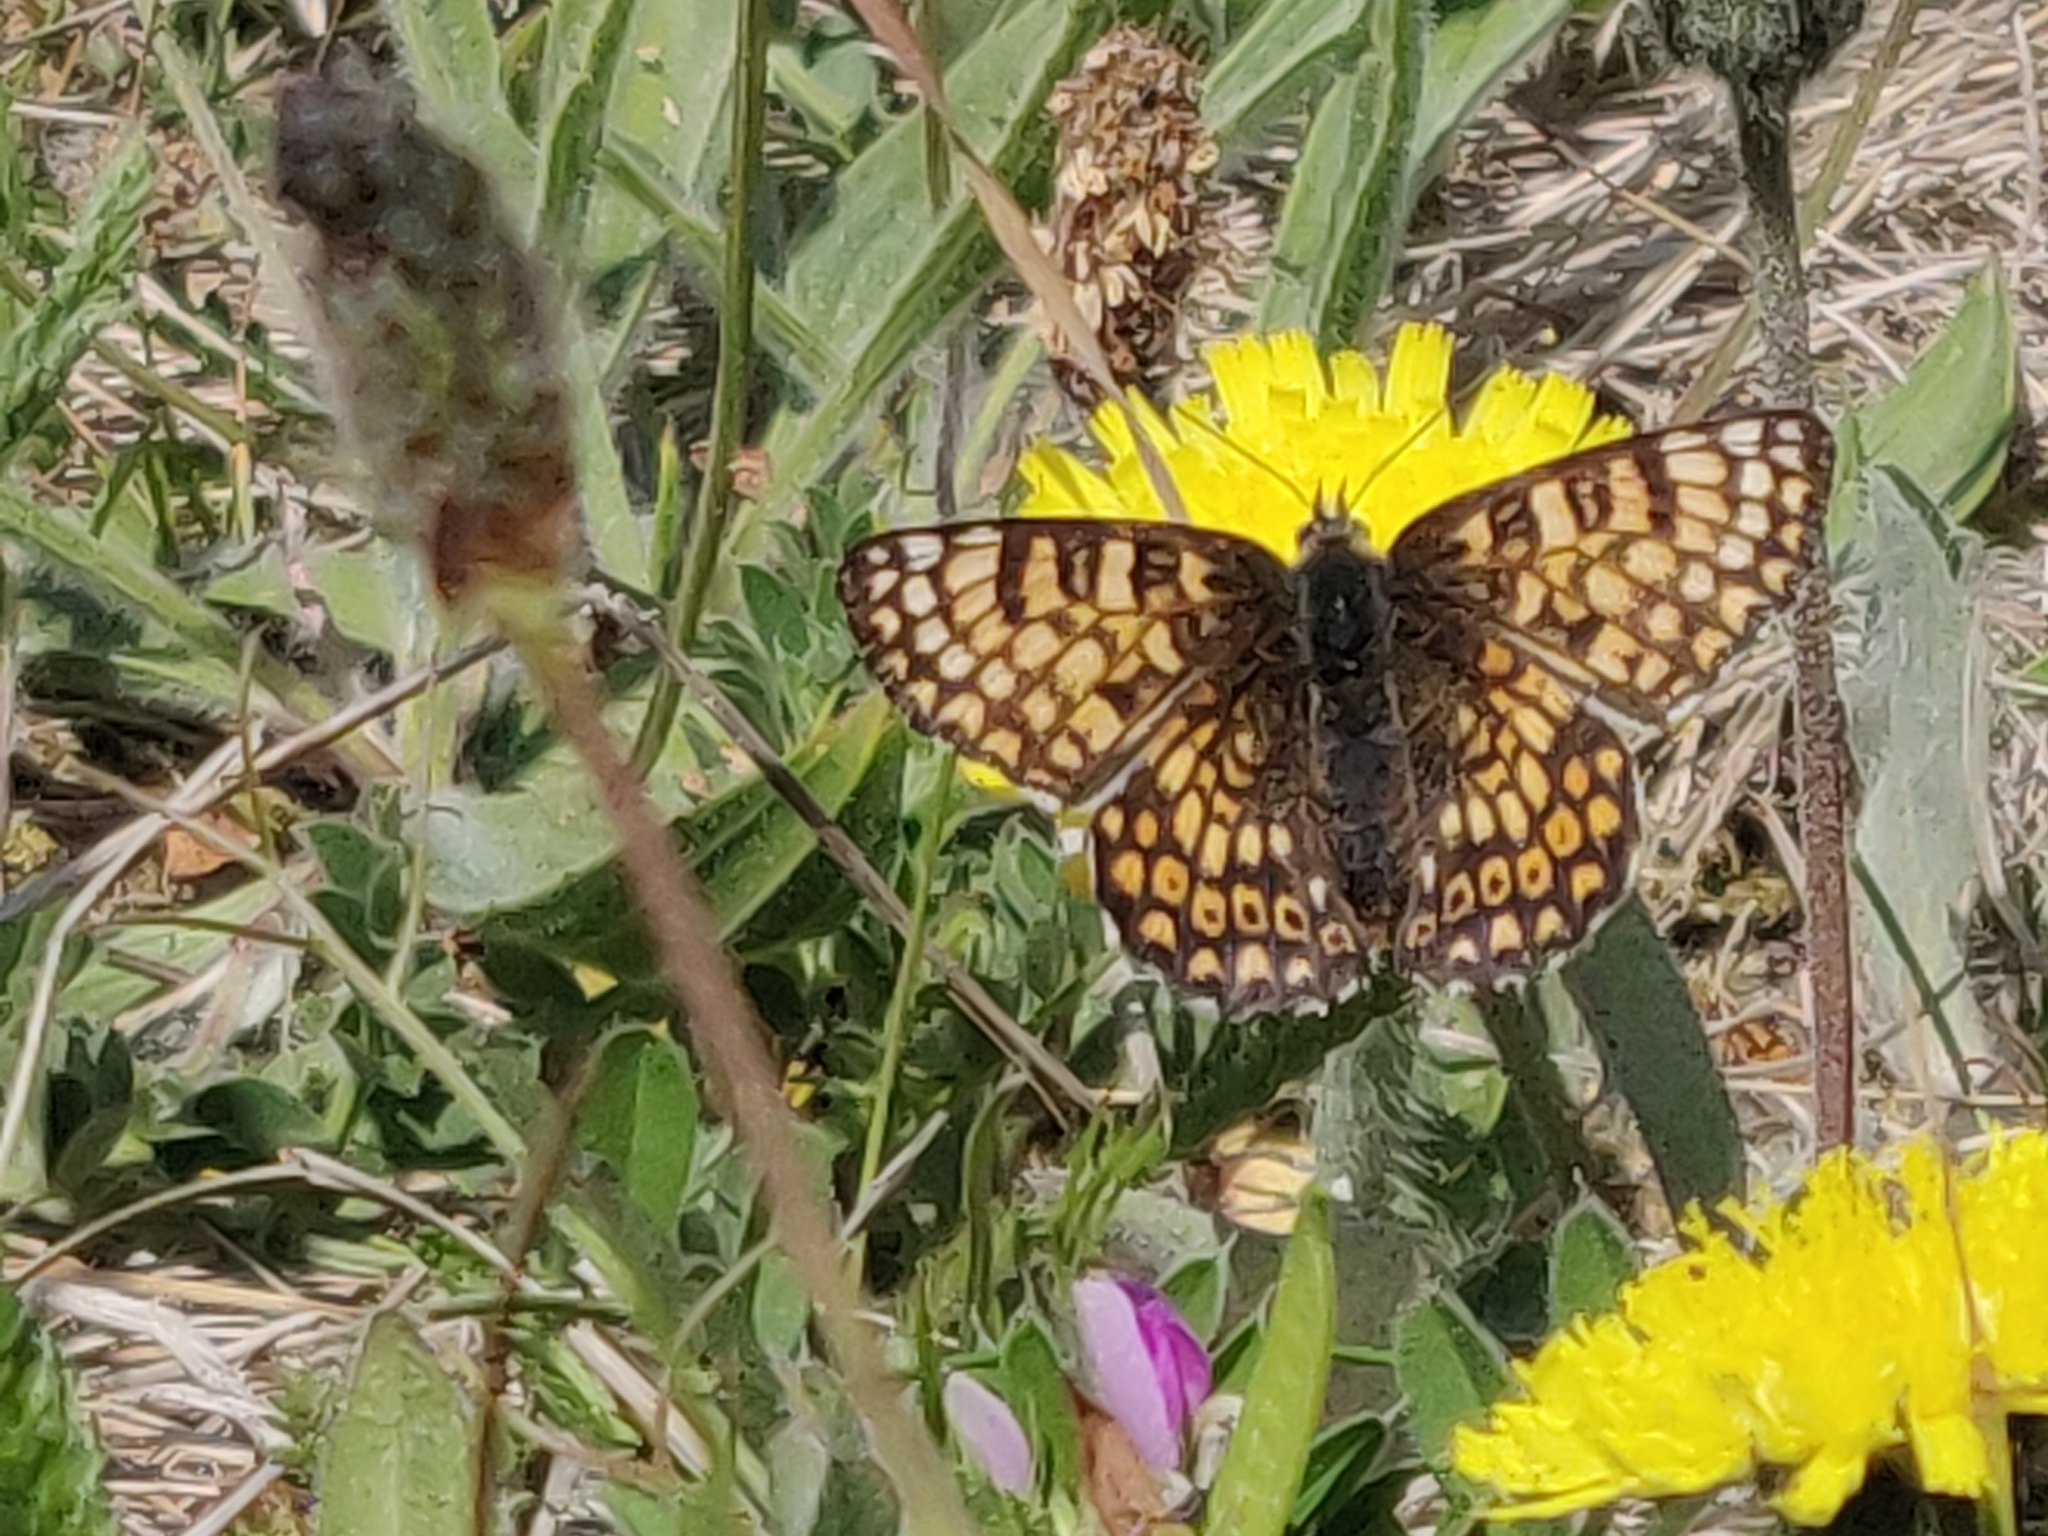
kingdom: Animalia
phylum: Arthropoda
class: Insecta
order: Lepidoptera
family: Nymphalidae
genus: Melitaea
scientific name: Melitaea cinxia
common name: Glanville fritillary
